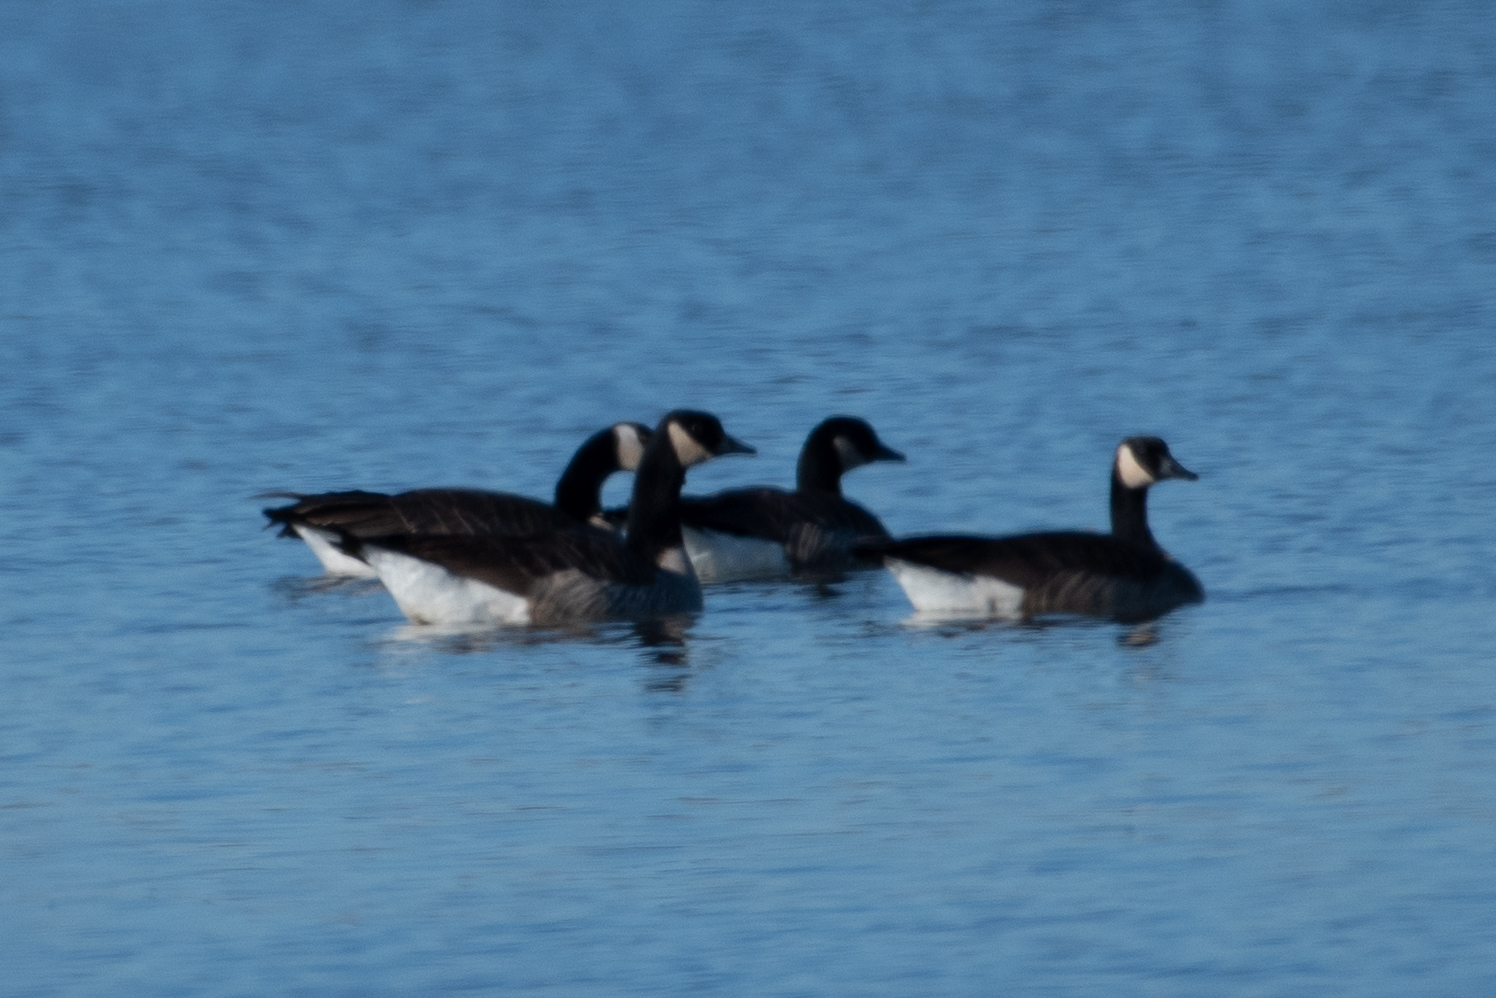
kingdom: Animalia
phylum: Chordata
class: Aves
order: Anseriformes
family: Anatidae
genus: Branta
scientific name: Branta canadensis
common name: Canada goose
